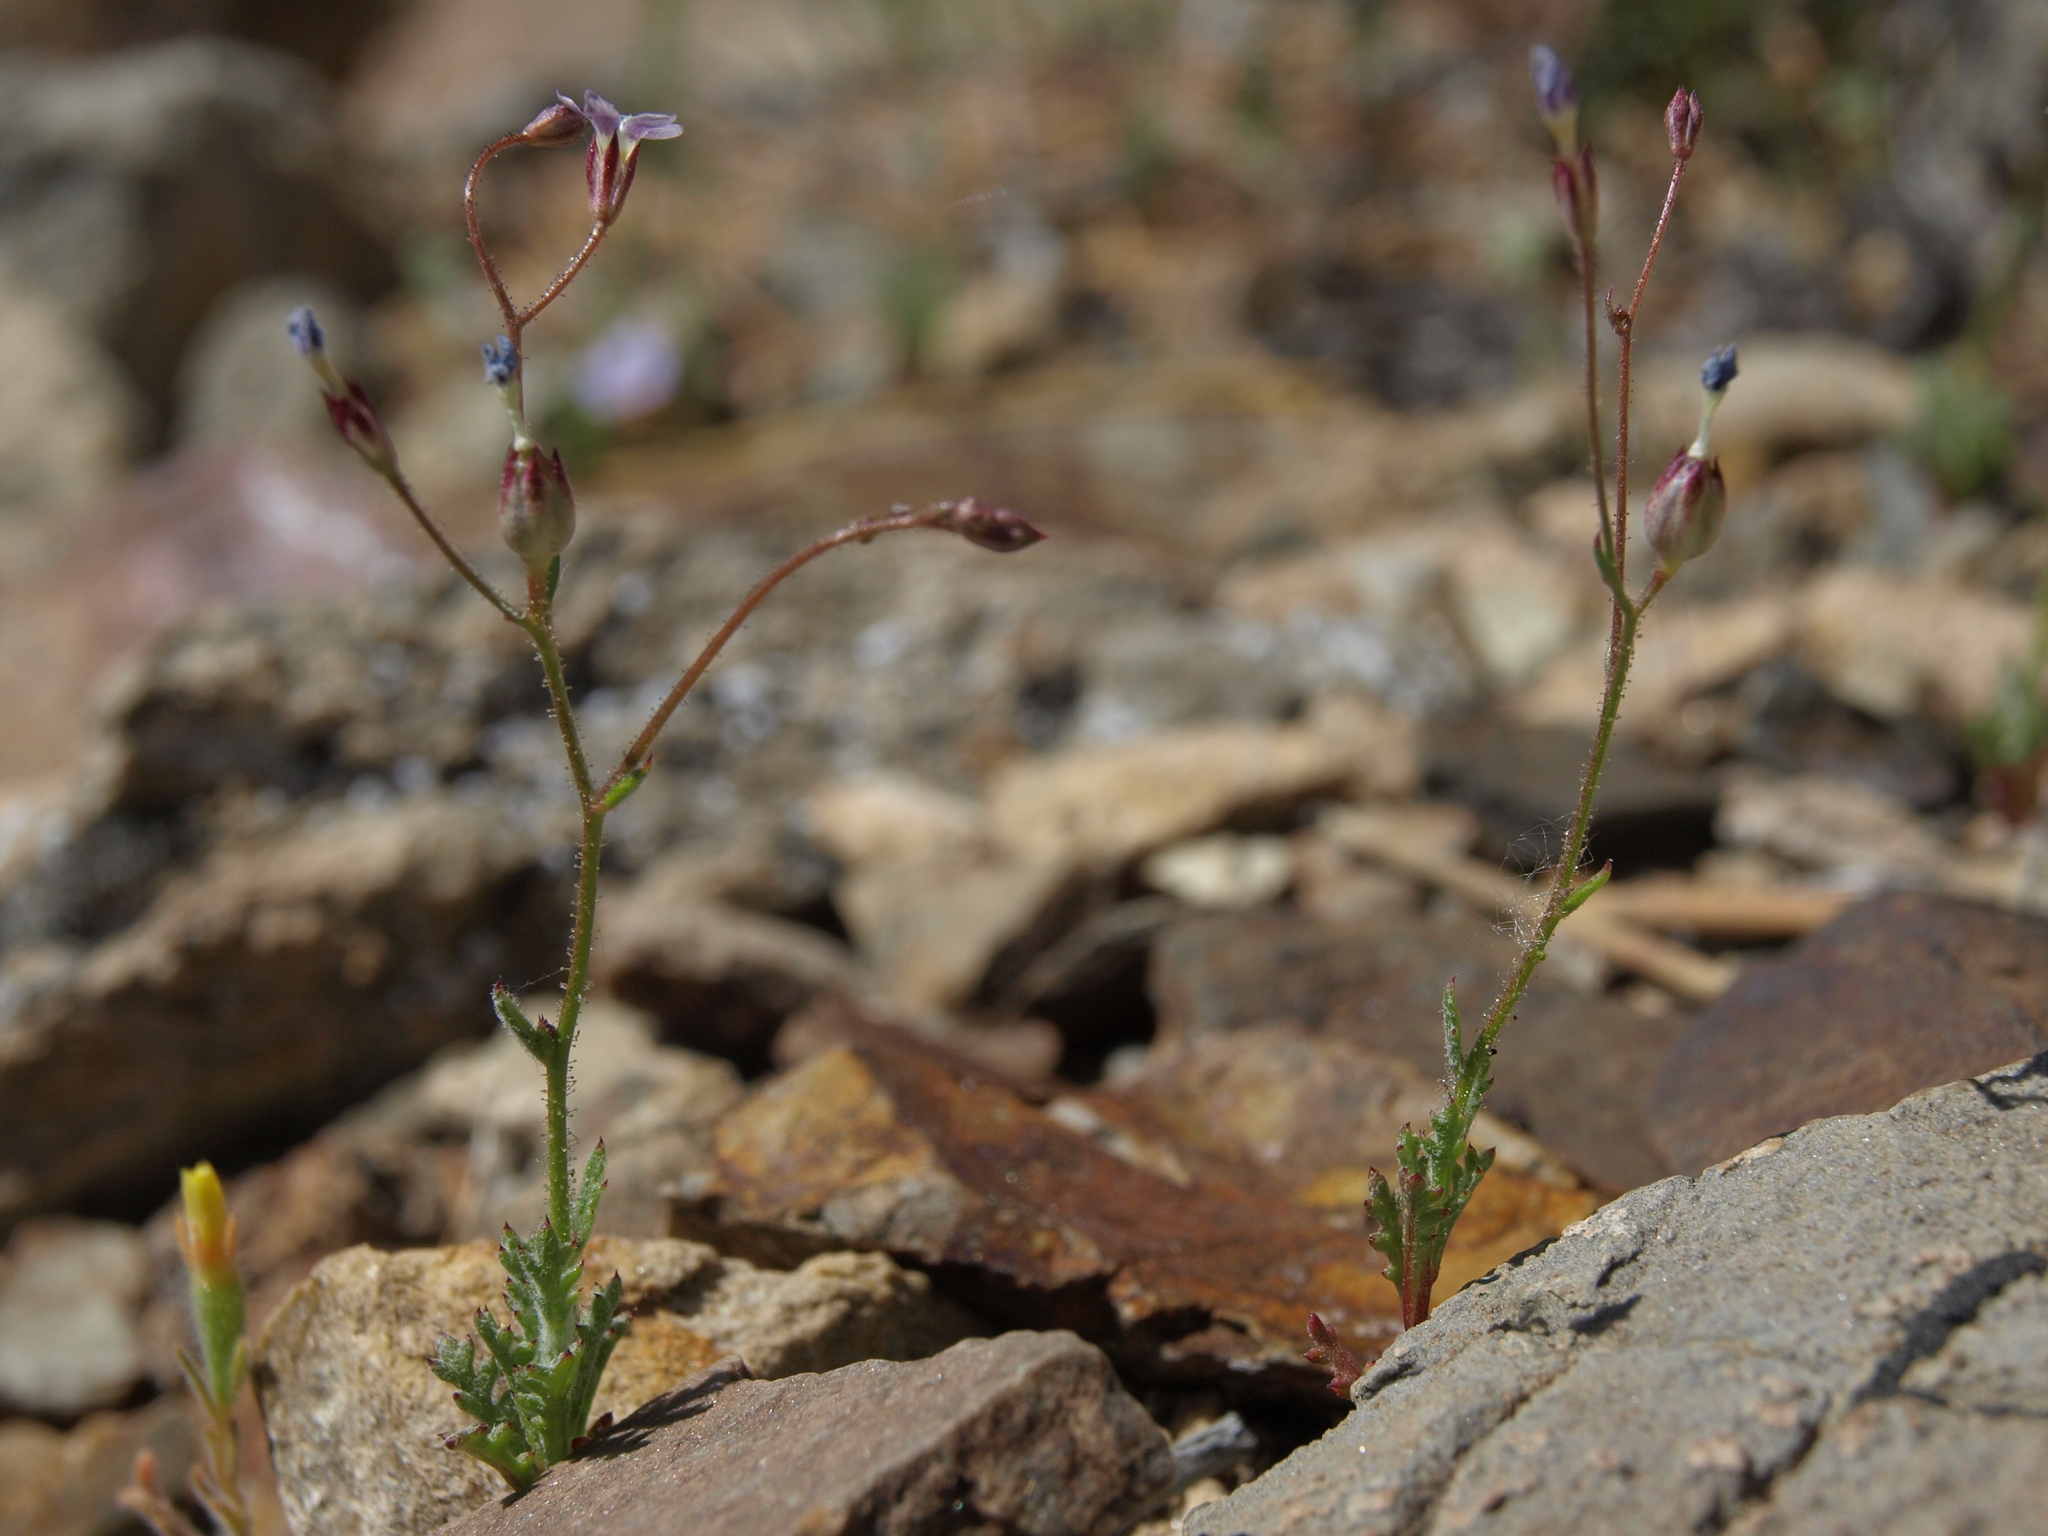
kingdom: Plantae
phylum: Tracheophyta
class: Magnoliopsida
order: Ericales
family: Polemoniaceae
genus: Gilia
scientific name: Gilia clokeyi
